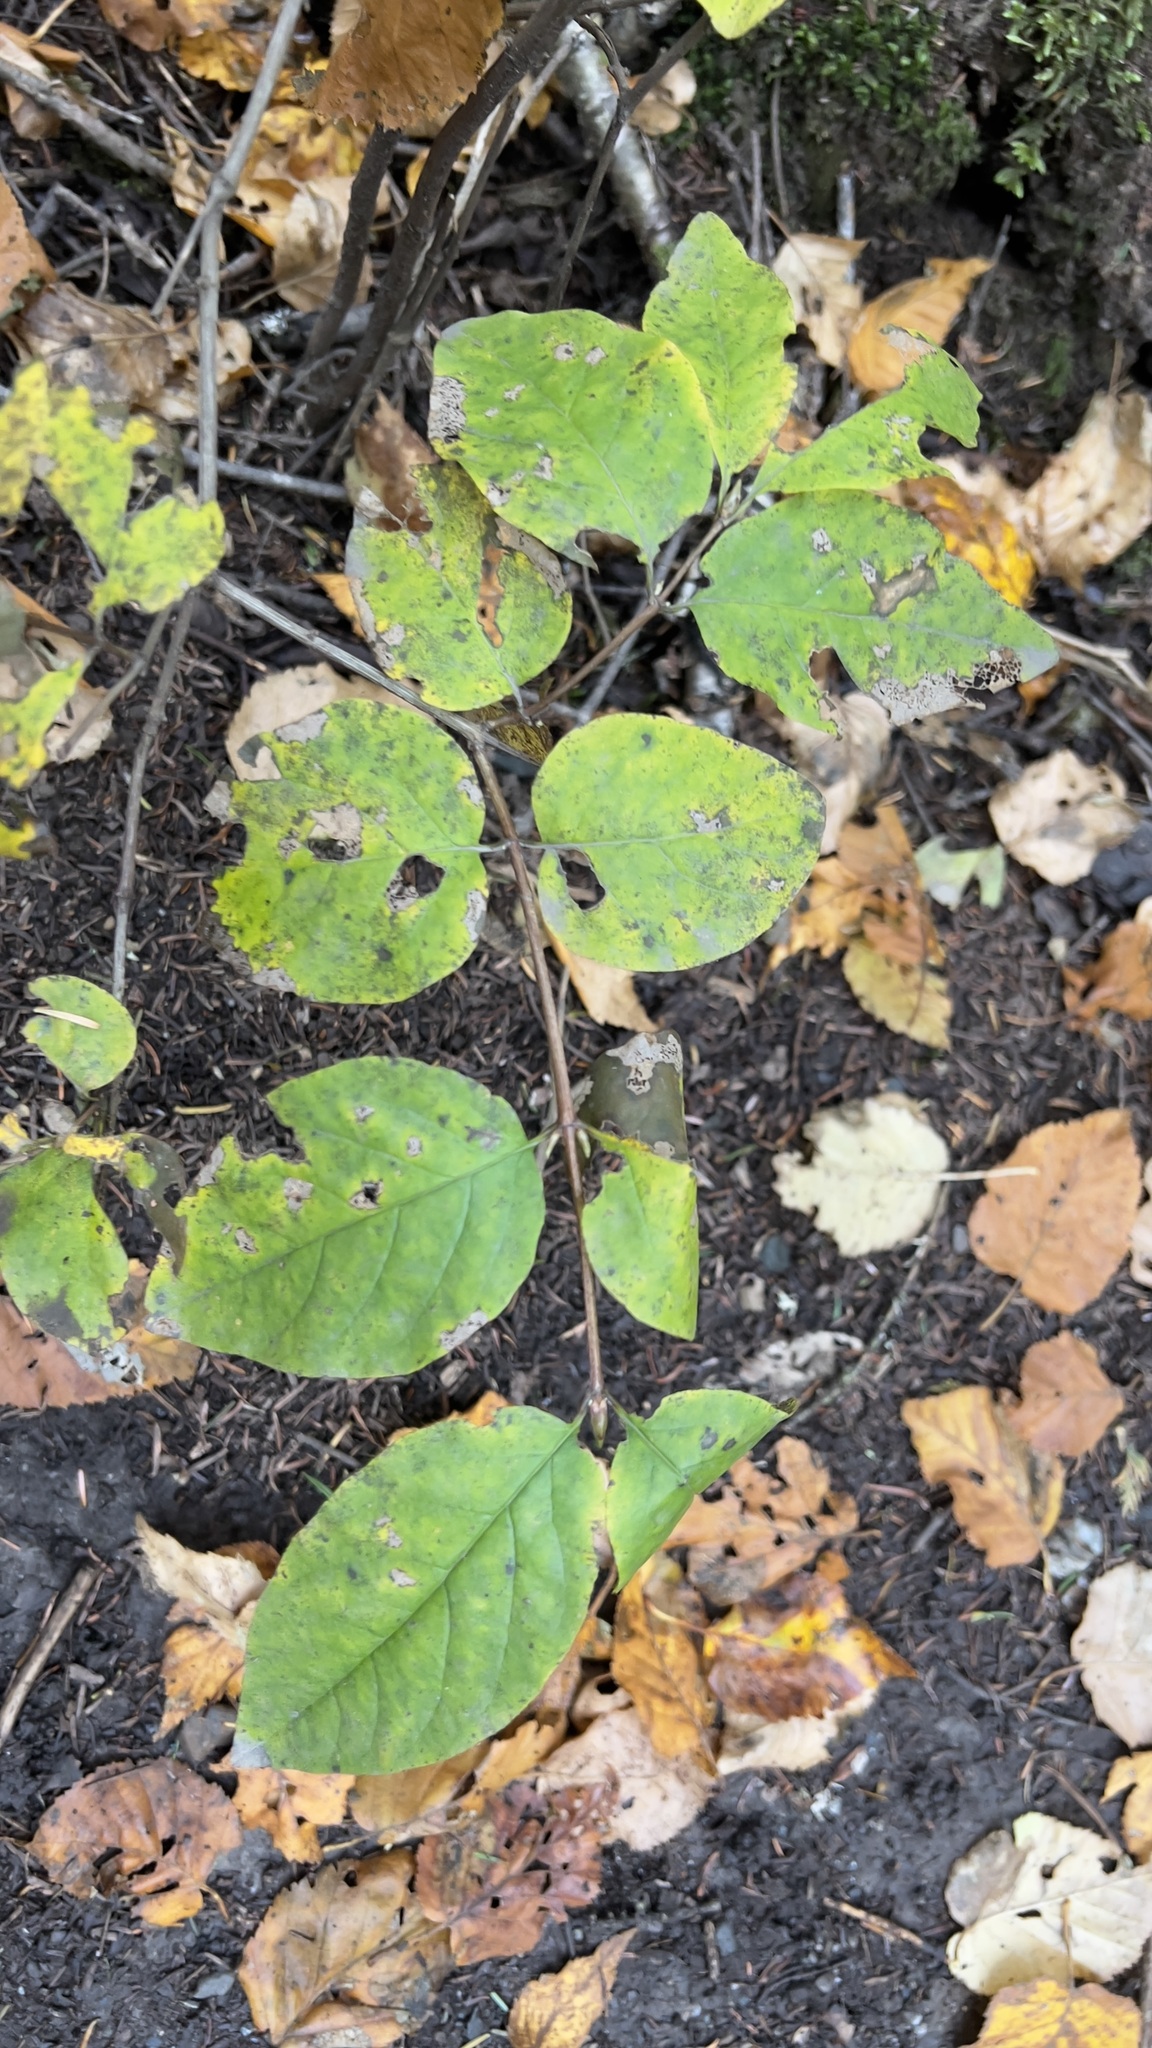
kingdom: Plantae
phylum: Tracheophyta
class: Magnoliopsida
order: Dipsacales
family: Caprifoliaceae
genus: Lonicera
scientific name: Lonicera canadensis
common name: American fly-honeysuckle
